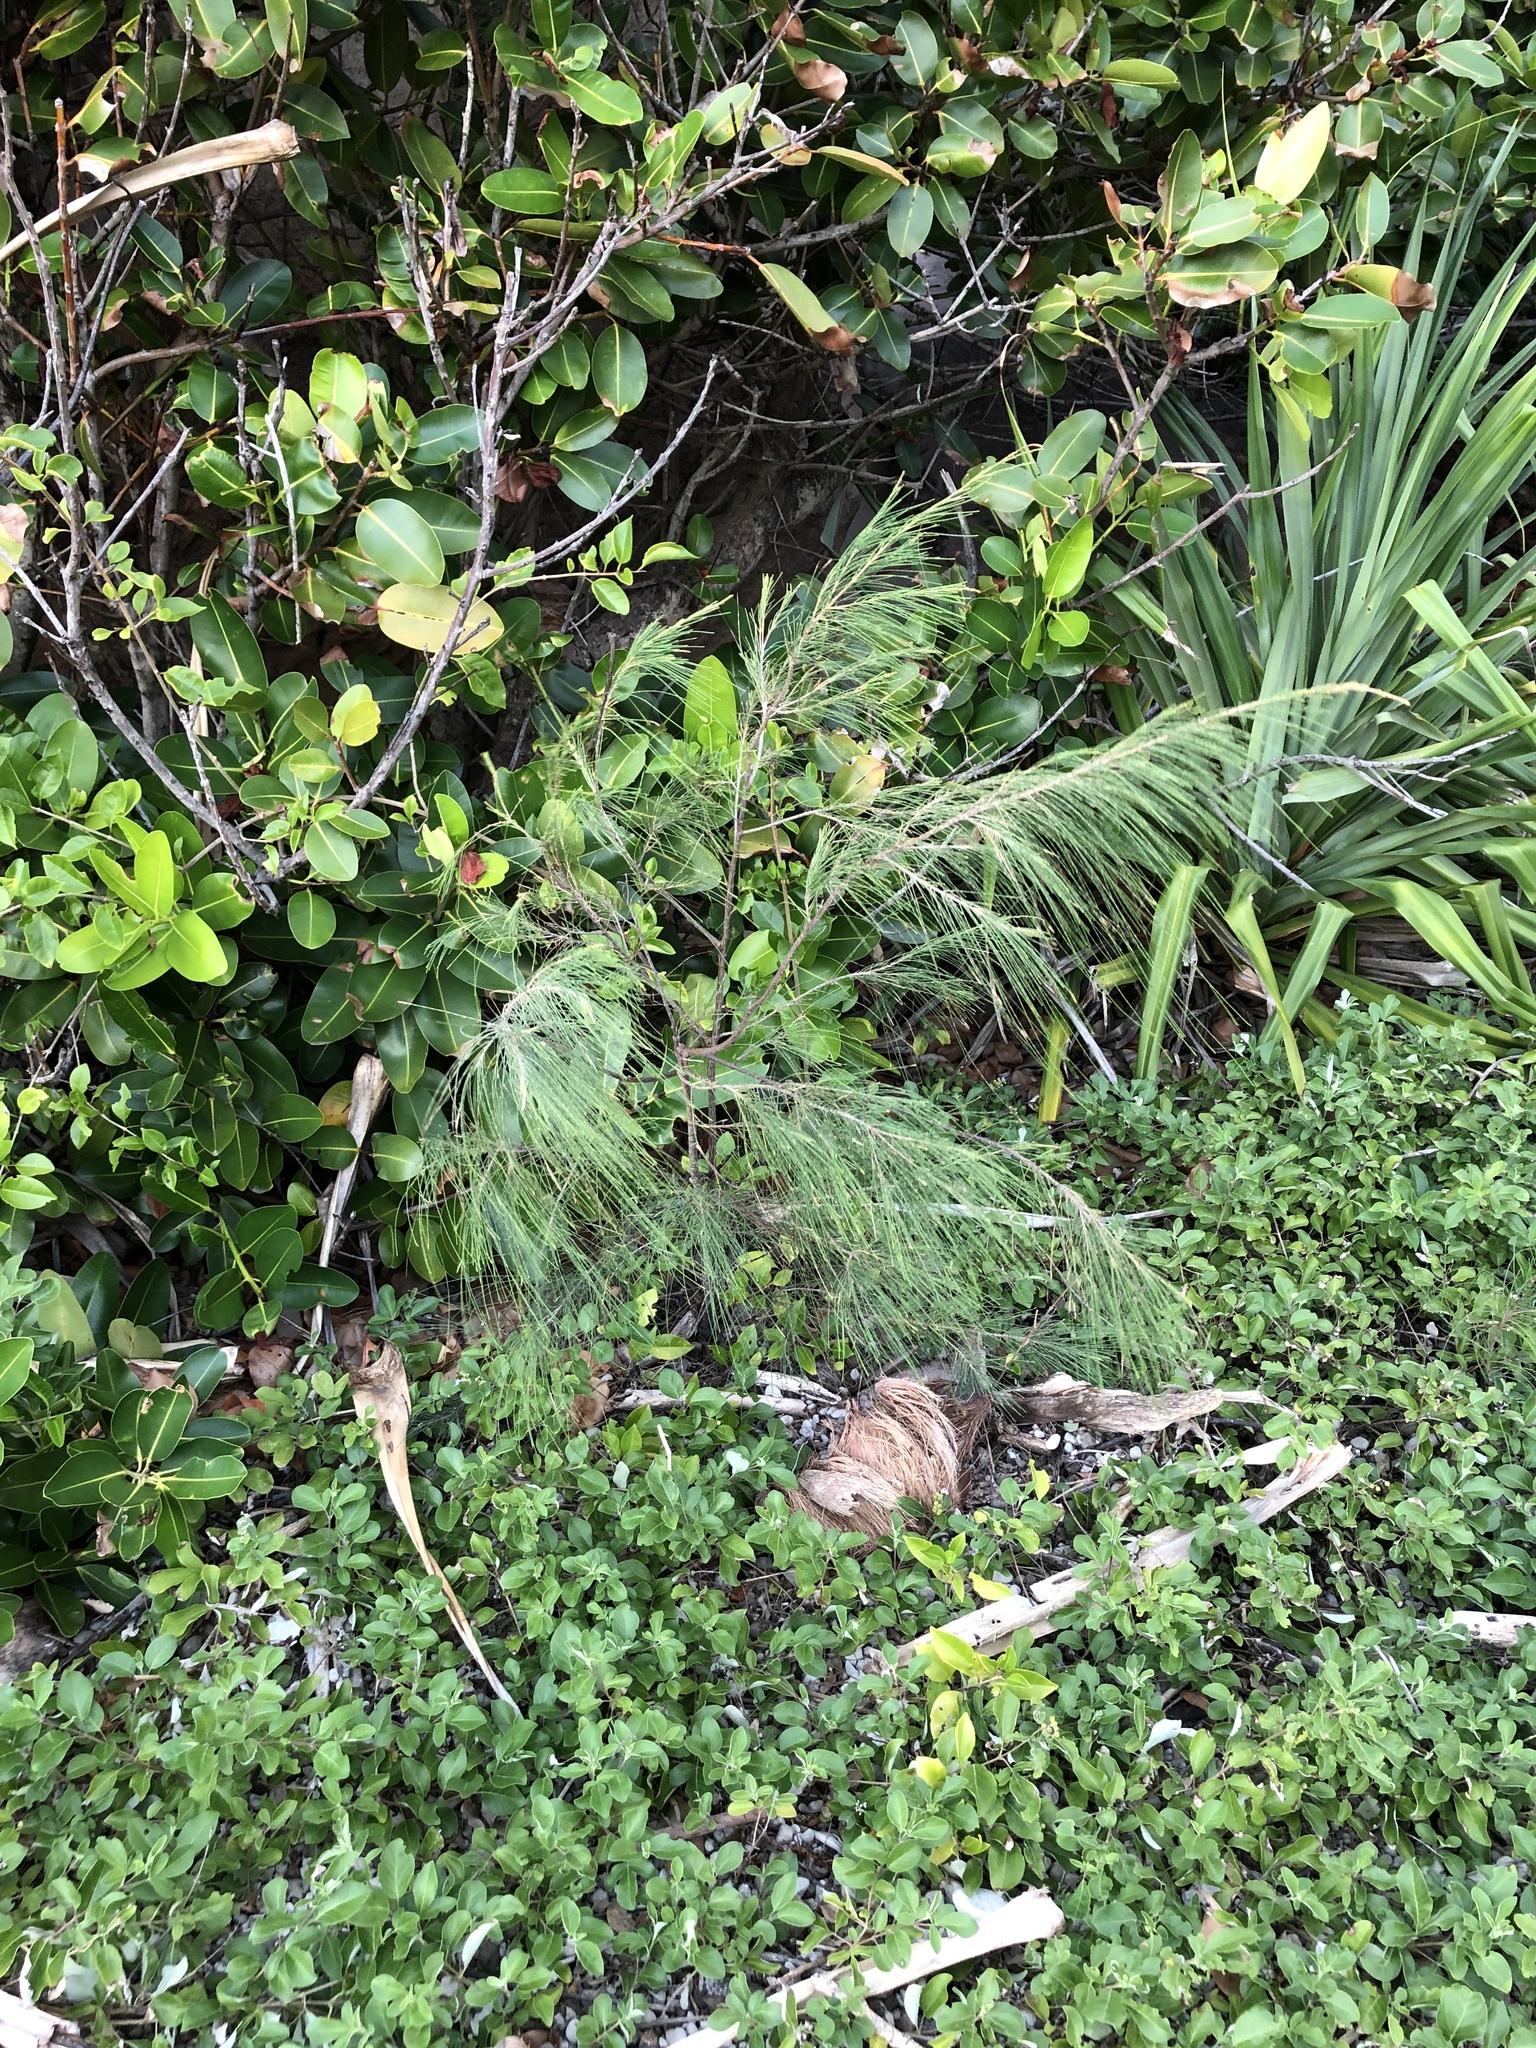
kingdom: Plantae
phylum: Tracheophyta
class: Magnoliopsida
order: Fagales
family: Casuarinaceae
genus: Casuarina
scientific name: Casuarina equisetifolia
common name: Beach sheoak
